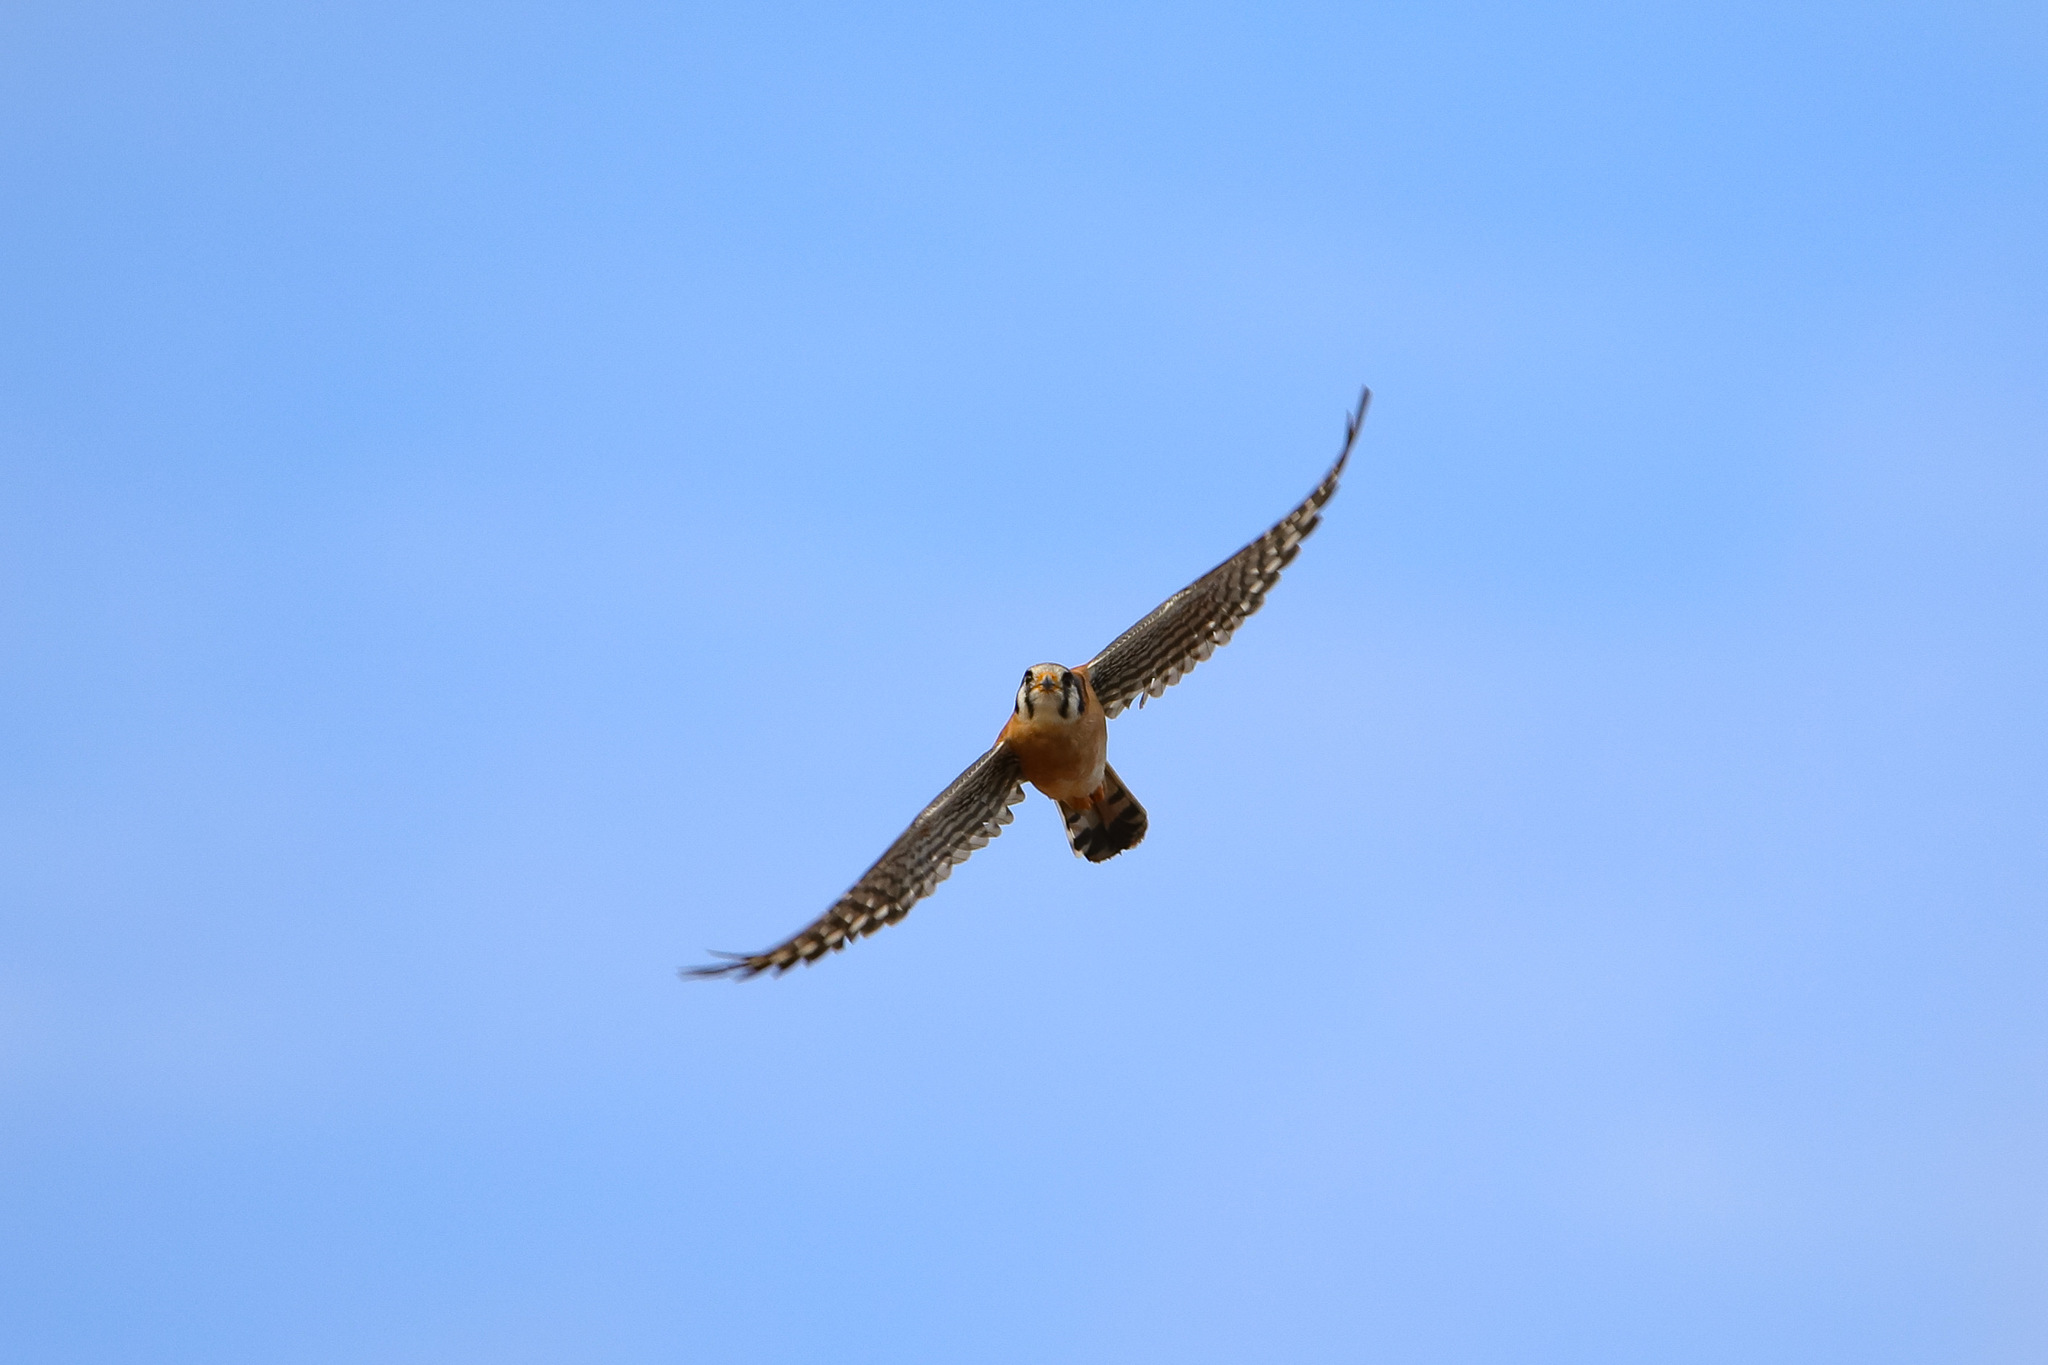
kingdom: Animalia
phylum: Chordata
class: Aves
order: Falconiformes
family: Falconidae
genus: Falco
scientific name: Falco sparverius
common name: American kestrel
